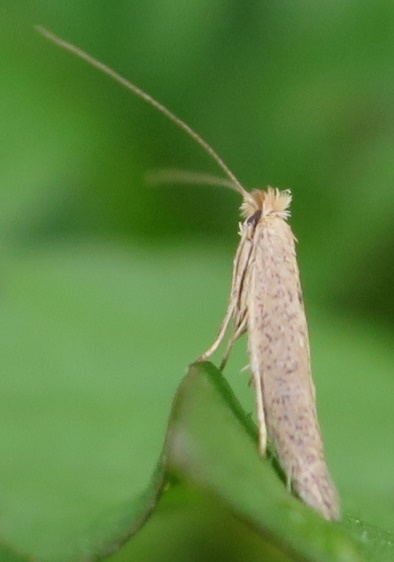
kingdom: Animalia
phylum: Arthropoda
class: Insecta
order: Lepidoptera
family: Bedelliidae
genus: Bedellia
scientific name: Bedellia somnulentella
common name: Morning-glory leafminer moth
